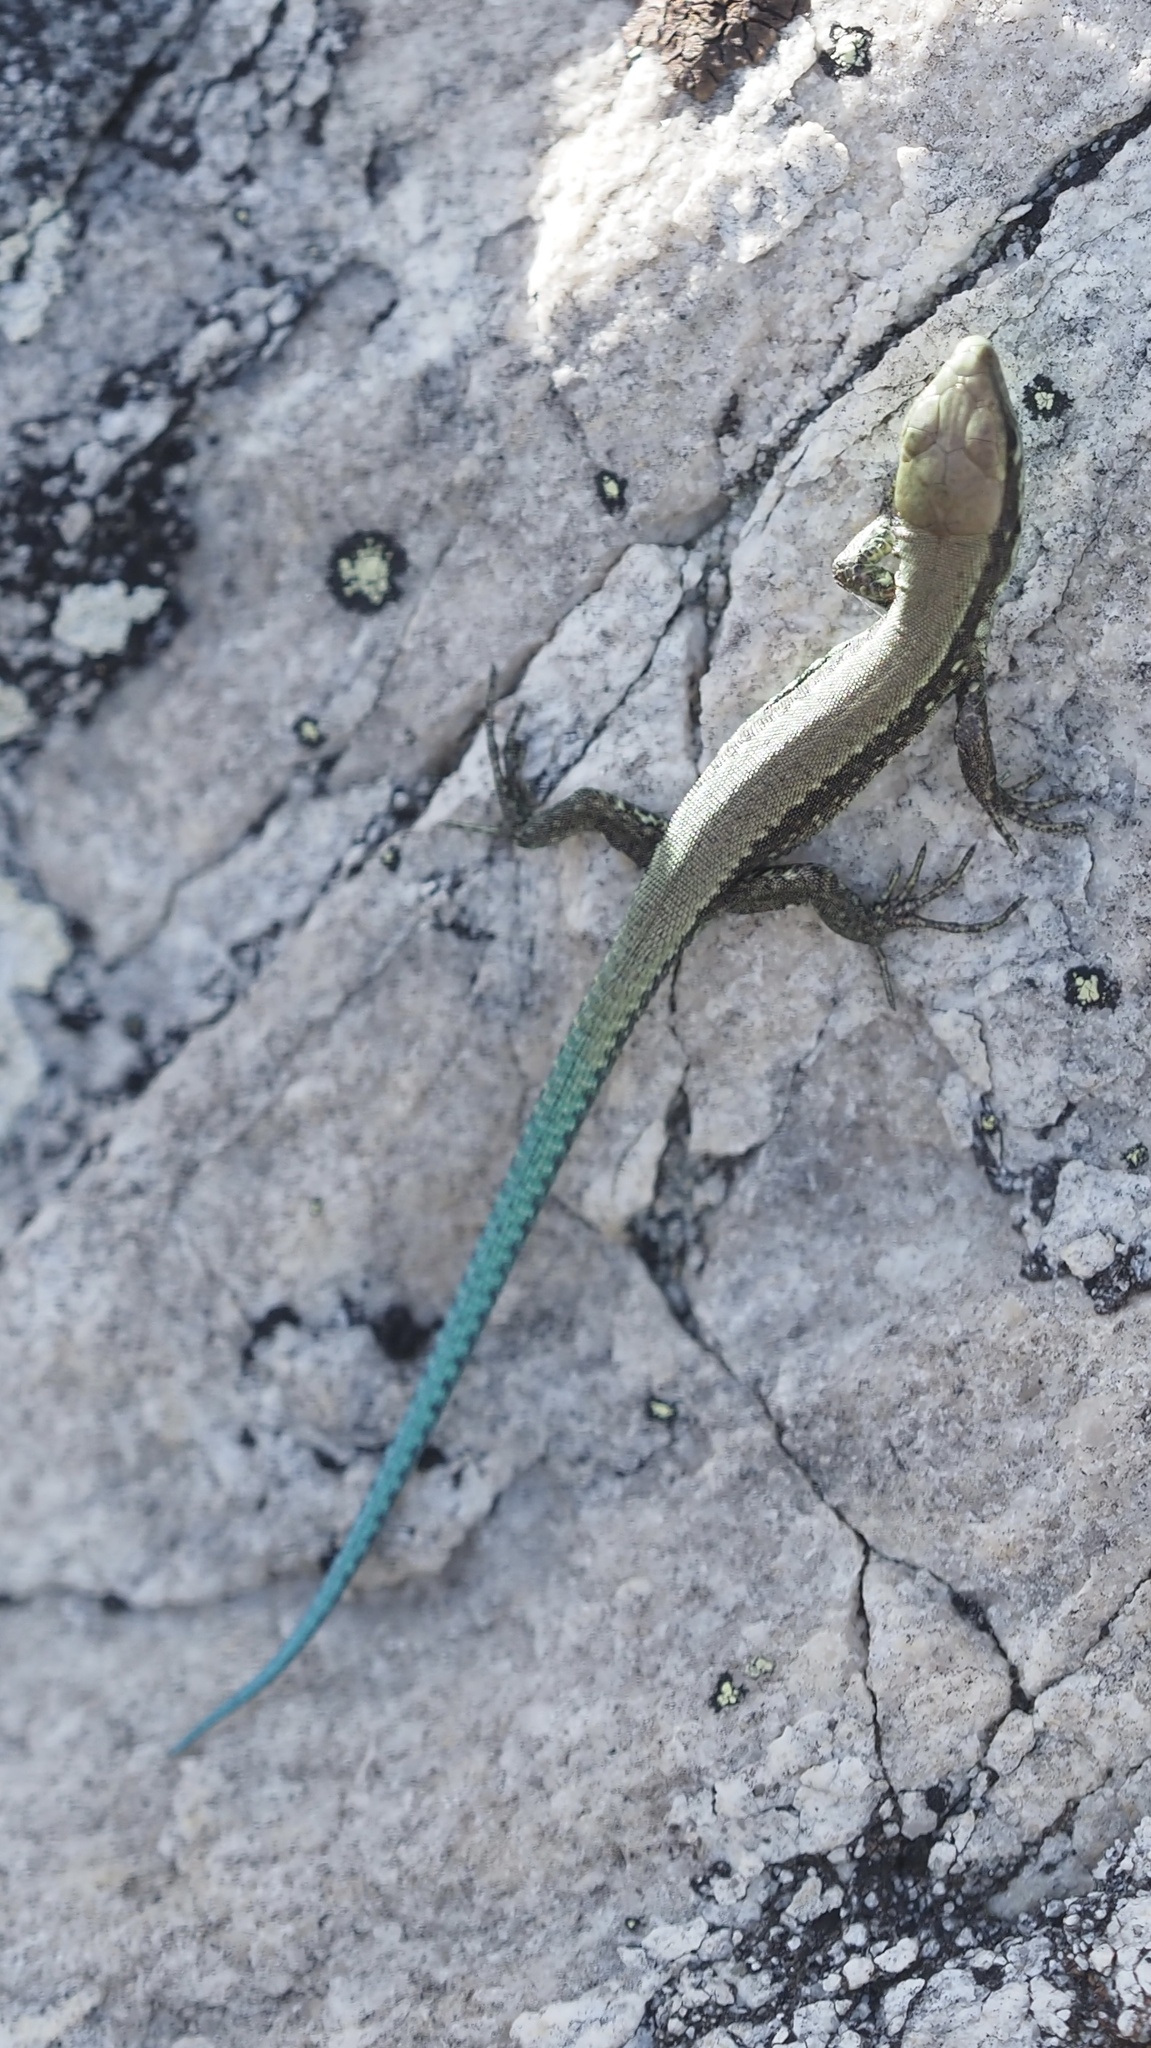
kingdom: Animalia
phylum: Chordata
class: Squamata
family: Lacertidae
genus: Iberolacerta
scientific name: Iberolacerta monticola
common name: Iberian mountain lizard
